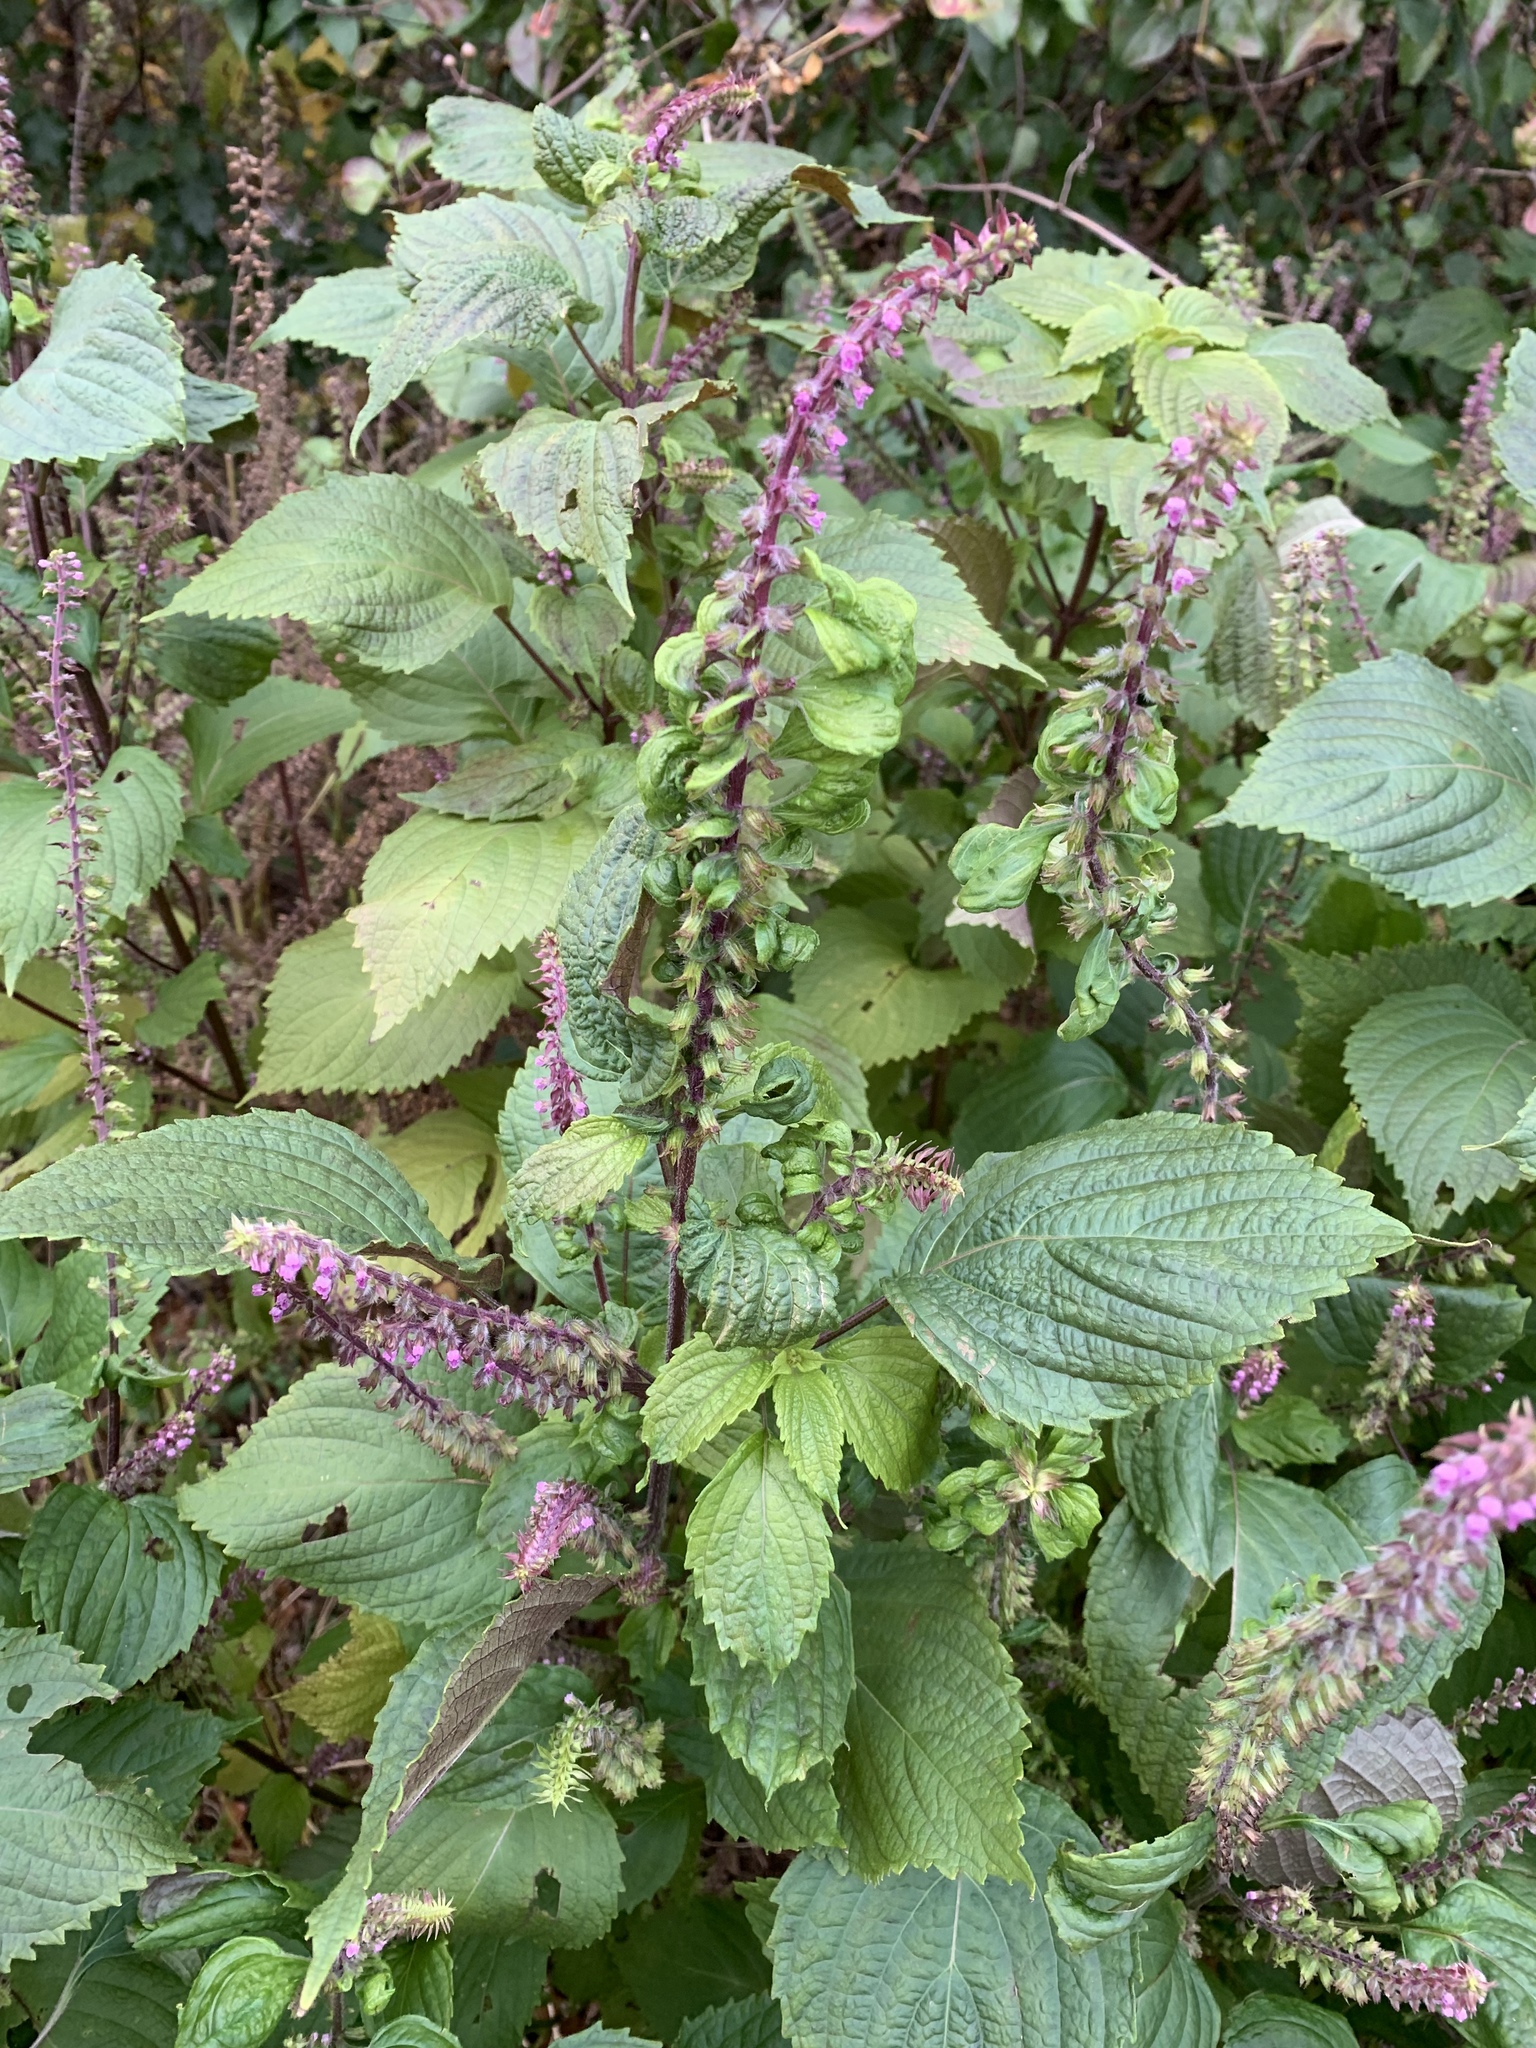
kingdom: Plantae
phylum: Tracheophyta
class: Magnoliopsida
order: Lamiales
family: Lamiaceae
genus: Perilla
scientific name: Perilla frutescens
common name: Perilla
